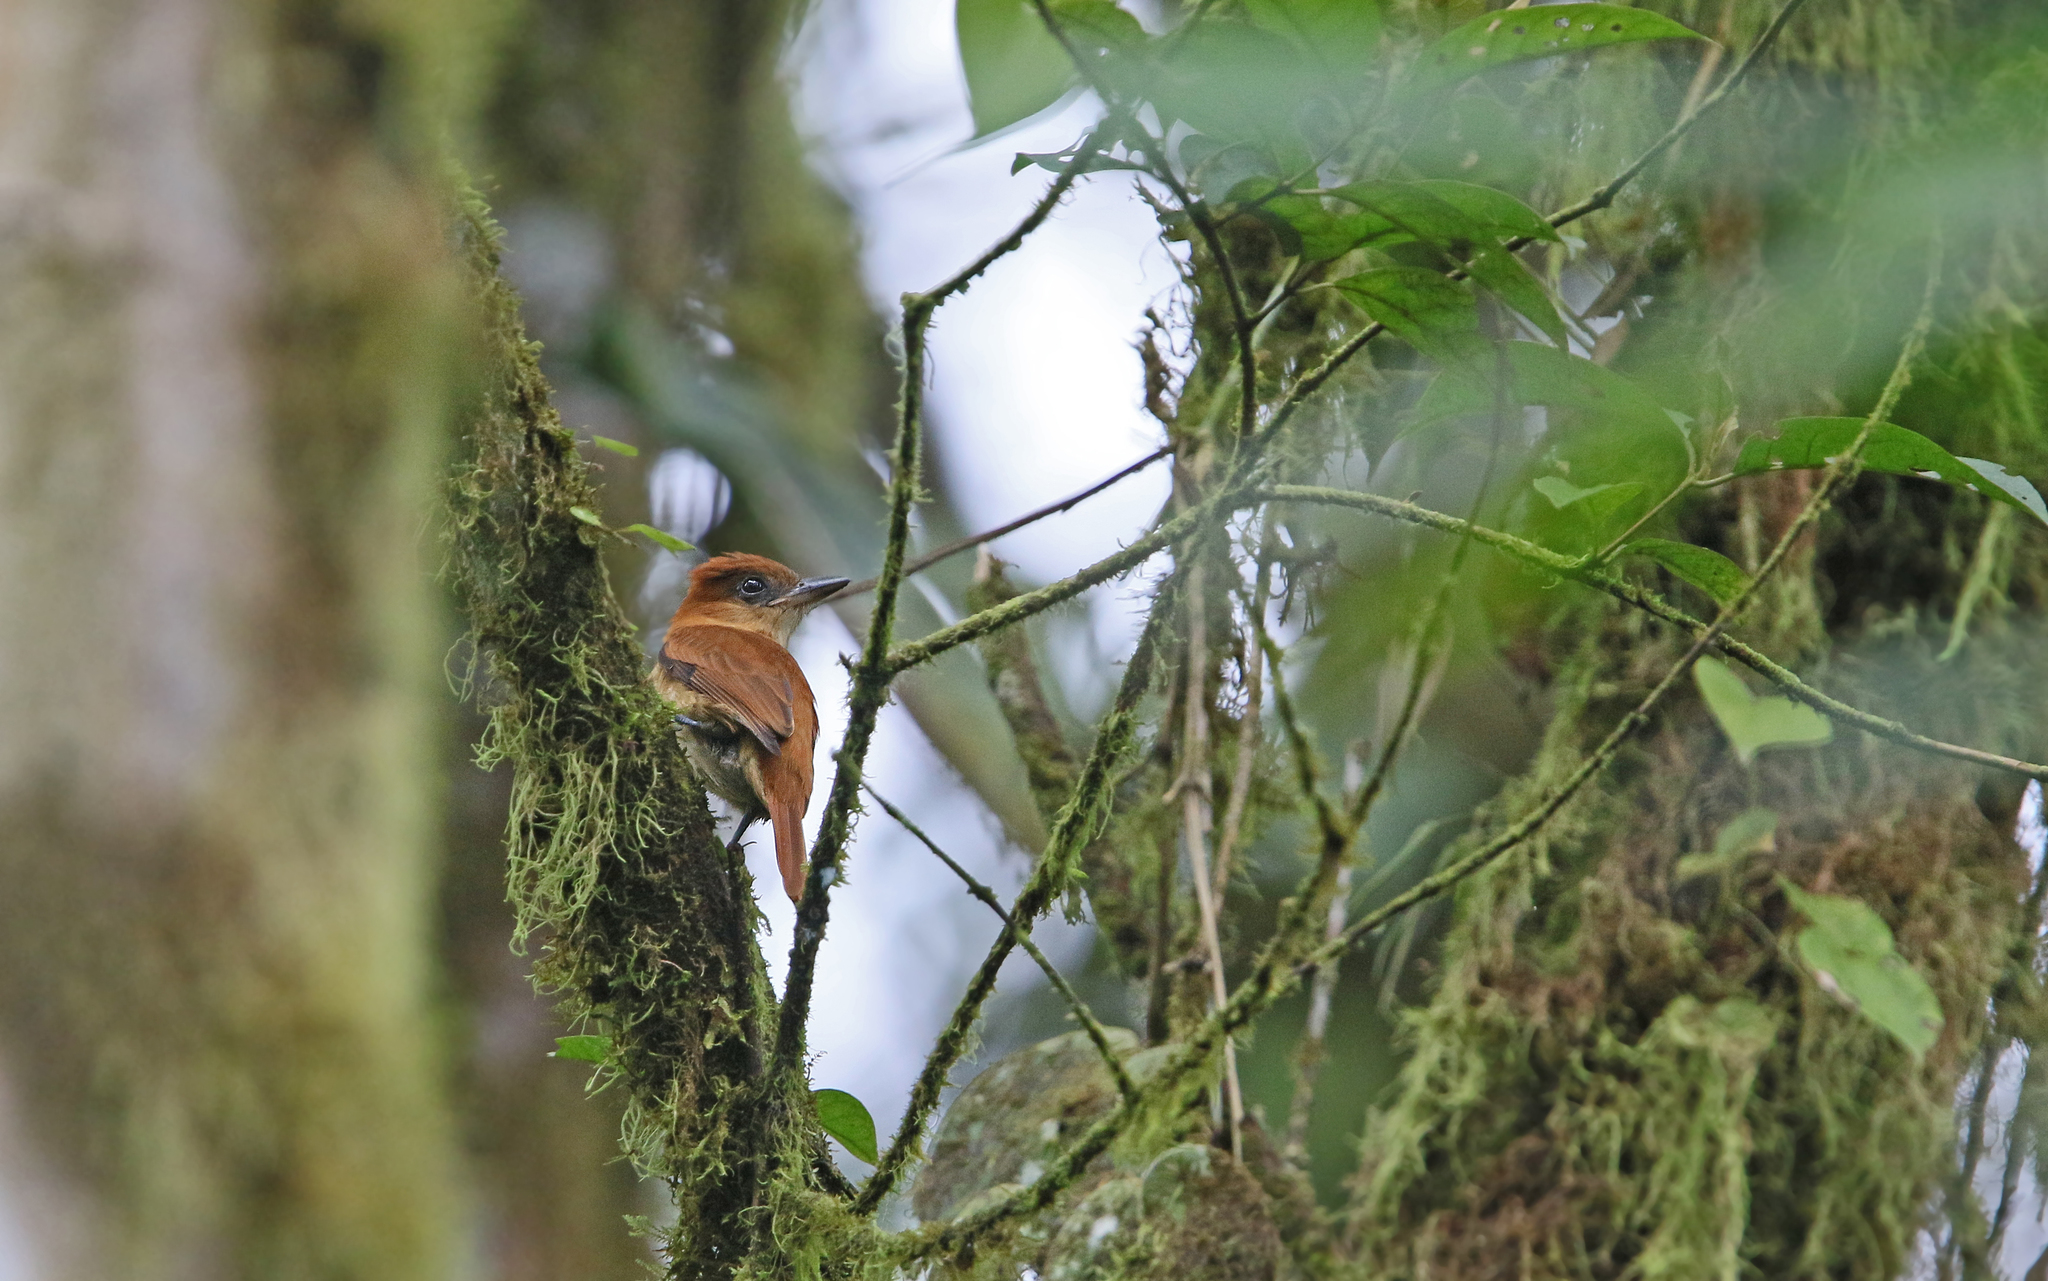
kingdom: Animalia
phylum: Chordata
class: Aves
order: Passeriformes
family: Cotingidae
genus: Pachyramphus
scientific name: Pachyramphus cinnamomeus
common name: Cinnamon becard
